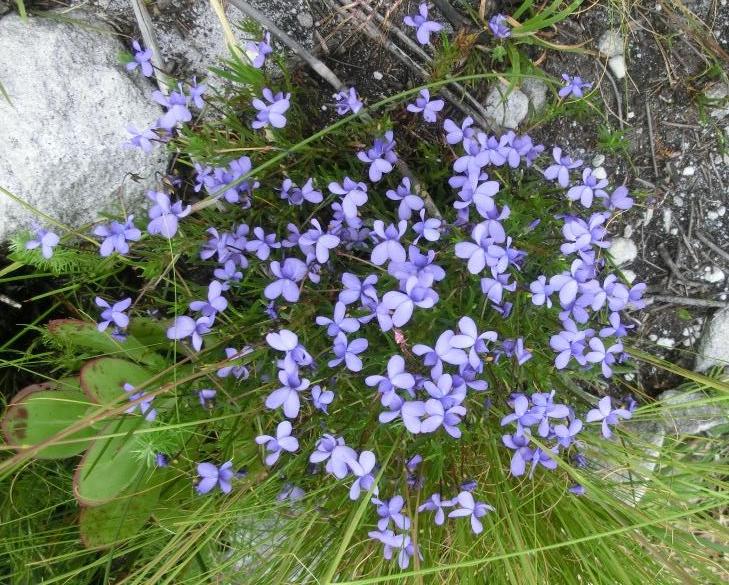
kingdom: Plantae
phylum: Tracheophyta
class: Magnoliopsida
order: Malpighiales
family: Violaceae
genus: Viola
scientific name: Viola decumbens
